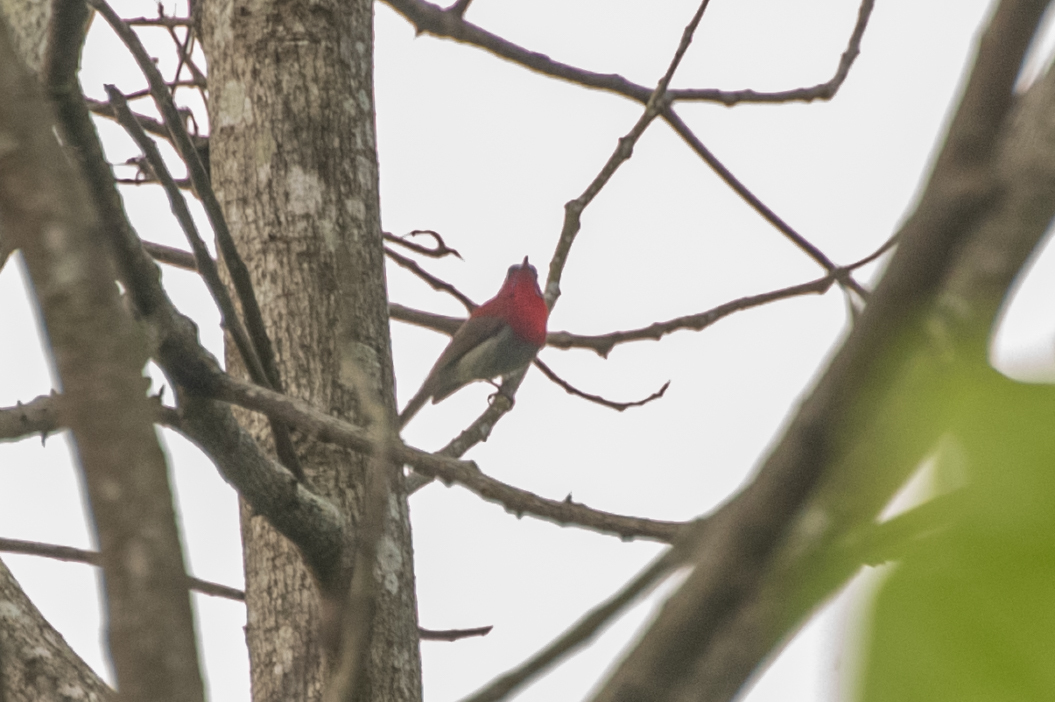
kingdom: Animalia
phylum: Chordata
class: Aves
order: Passeriformes
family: Nectariniidae
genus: Aethopyga
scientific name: Aethopyga siparaja
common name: Crimson sunbird
